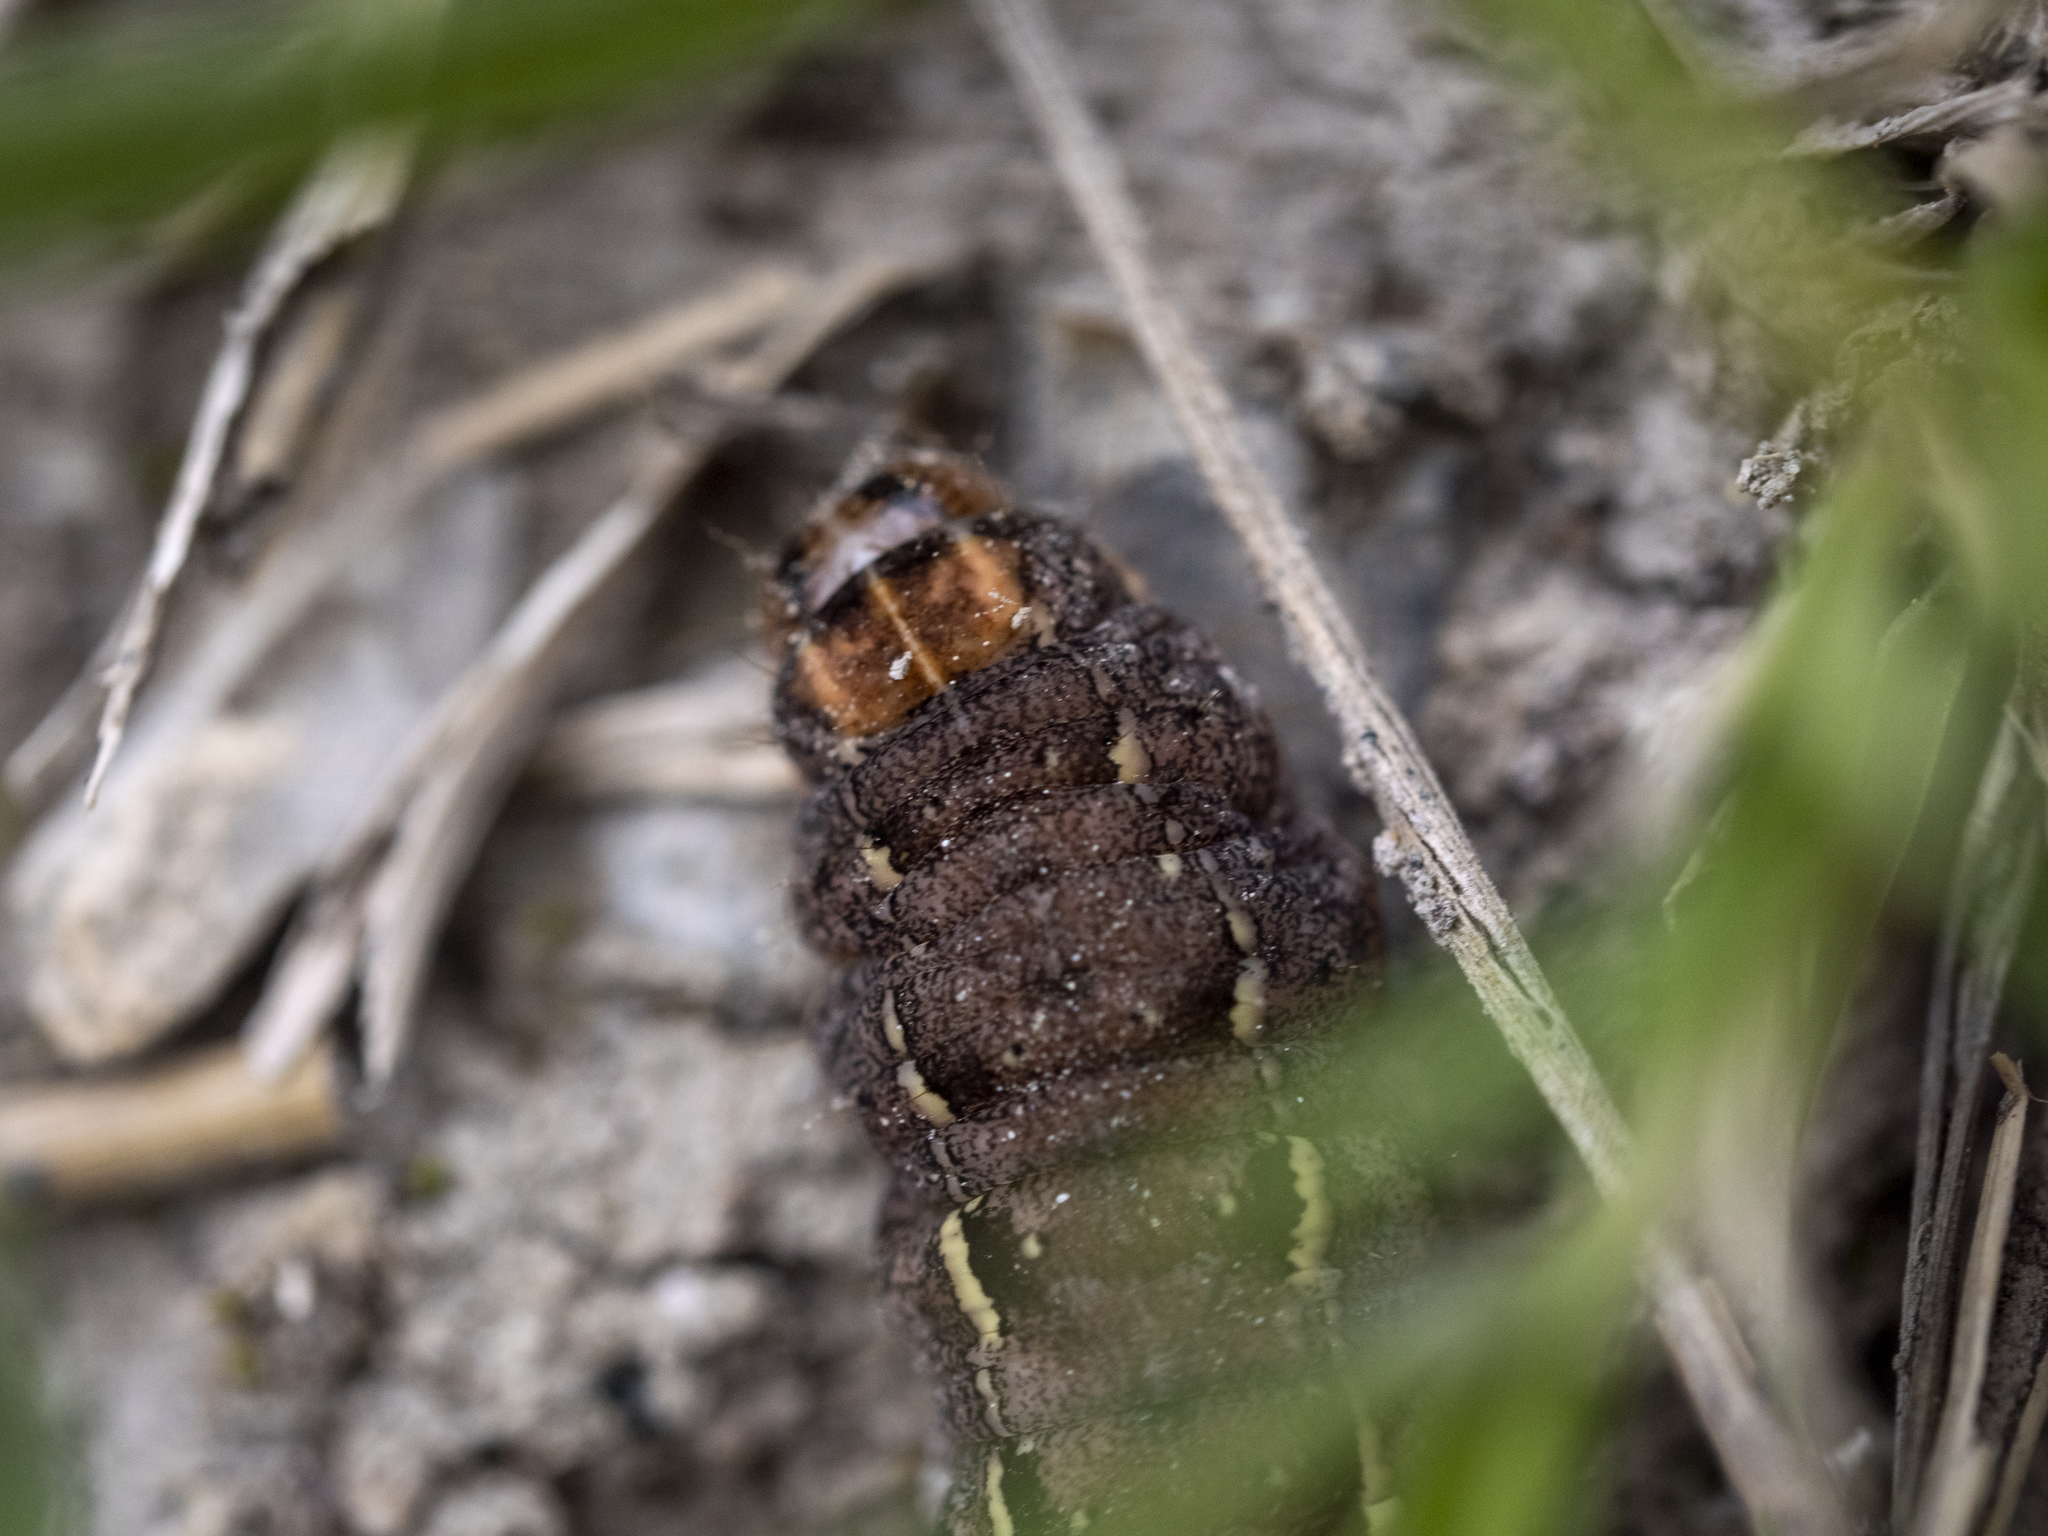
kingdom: Animalia
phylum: Arthropoda
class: Insecta
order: Lepidoptera
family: Nymphalidae
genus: Erebia
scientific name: Erebia epipsodea
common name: Common alpine
